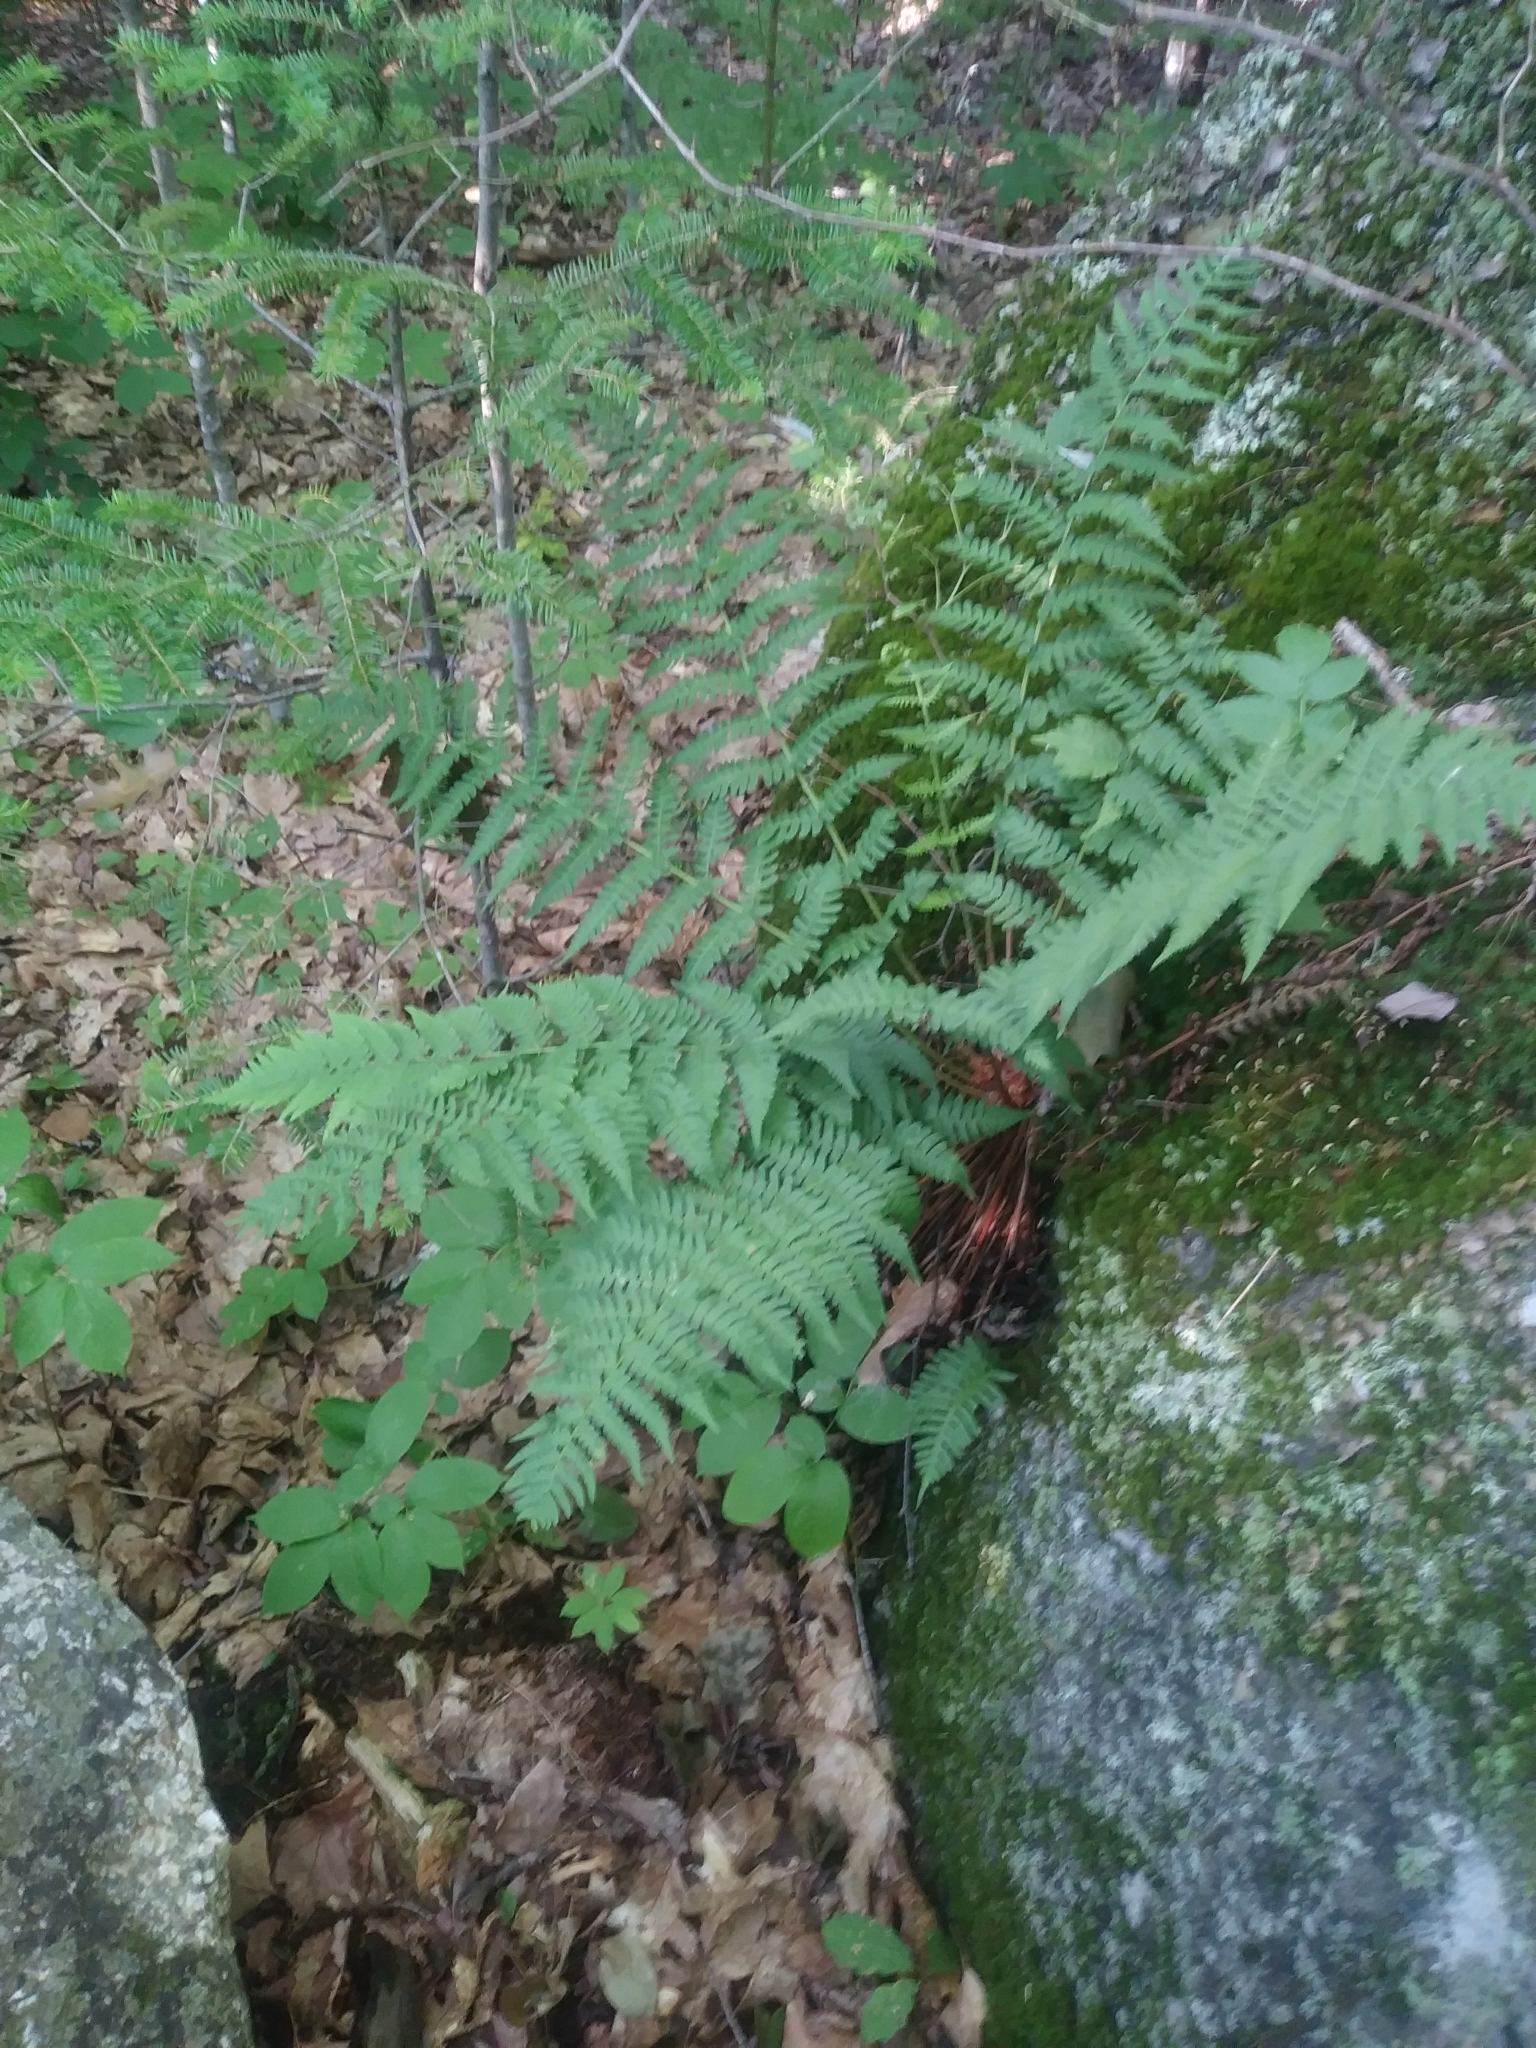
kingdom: Plantae
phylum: Tracheophyta
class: Polypodiopsida
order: Polypodiales
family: Dryopteridaceae
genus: Dryopteris
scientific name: Dryopteris marginalis
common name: Marginal wood fern
